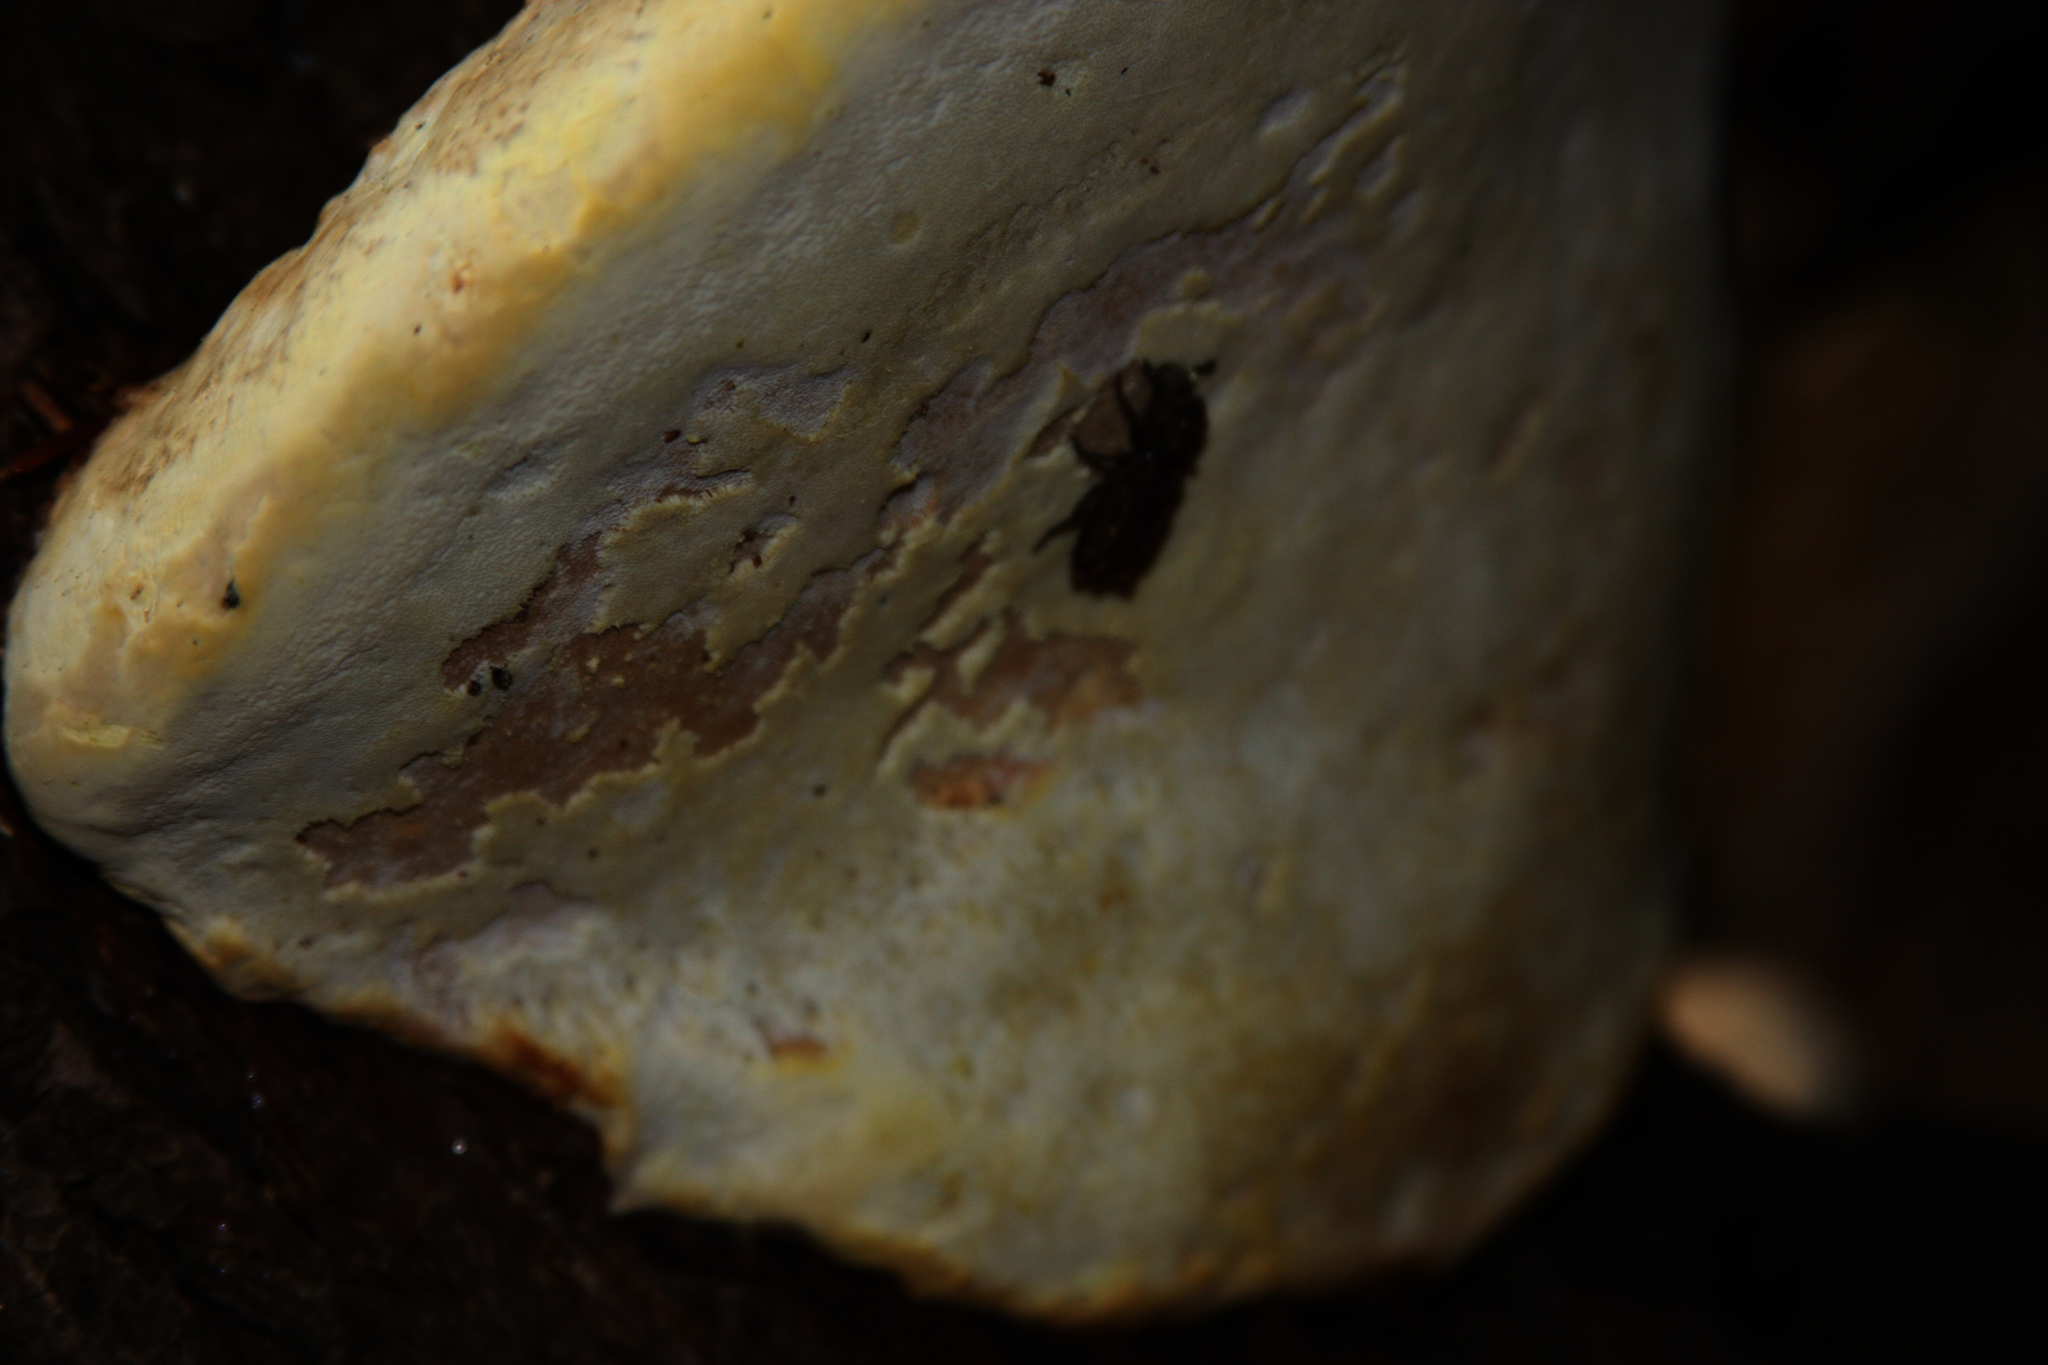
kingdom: Animalia
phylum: Arthropoda
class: Insecta
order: Coleoptera
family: Zopheridae
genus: Phellopsis
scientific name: Phellopsis obcordata
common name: Eastern ironclad beetle
